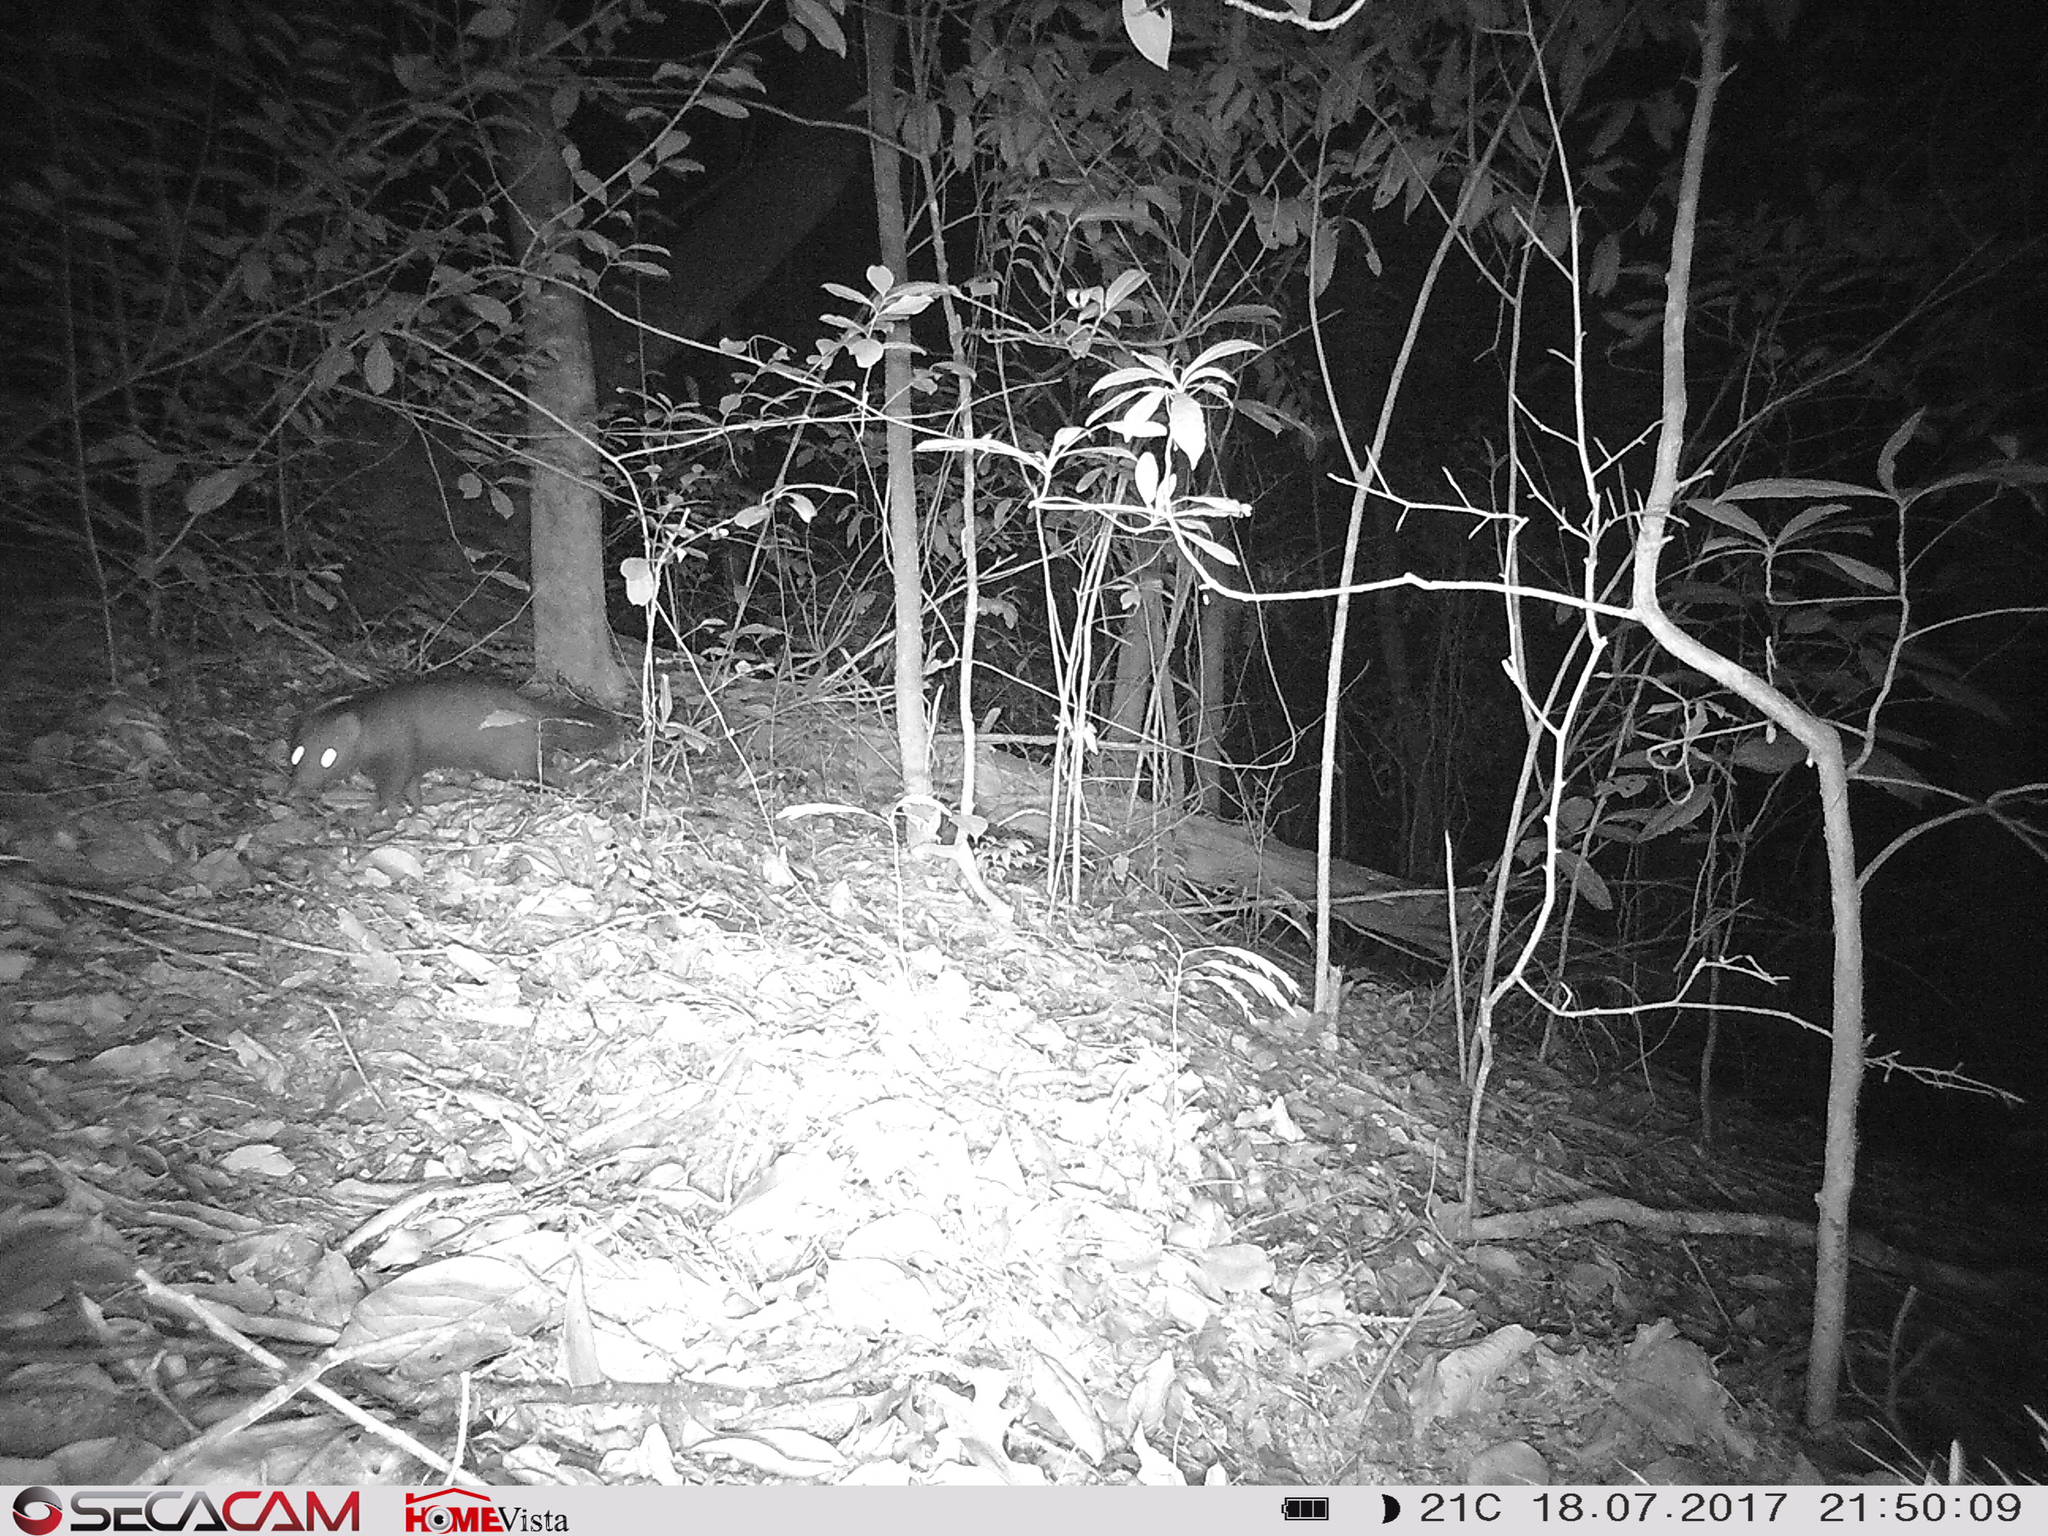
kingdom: Animalia
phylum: Chordata
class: Mammalia
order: Carnivora
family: Herpestidae
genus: Bdeogale
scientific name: Bdeogale crassicauda
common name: Bushy-tailed mongoose
